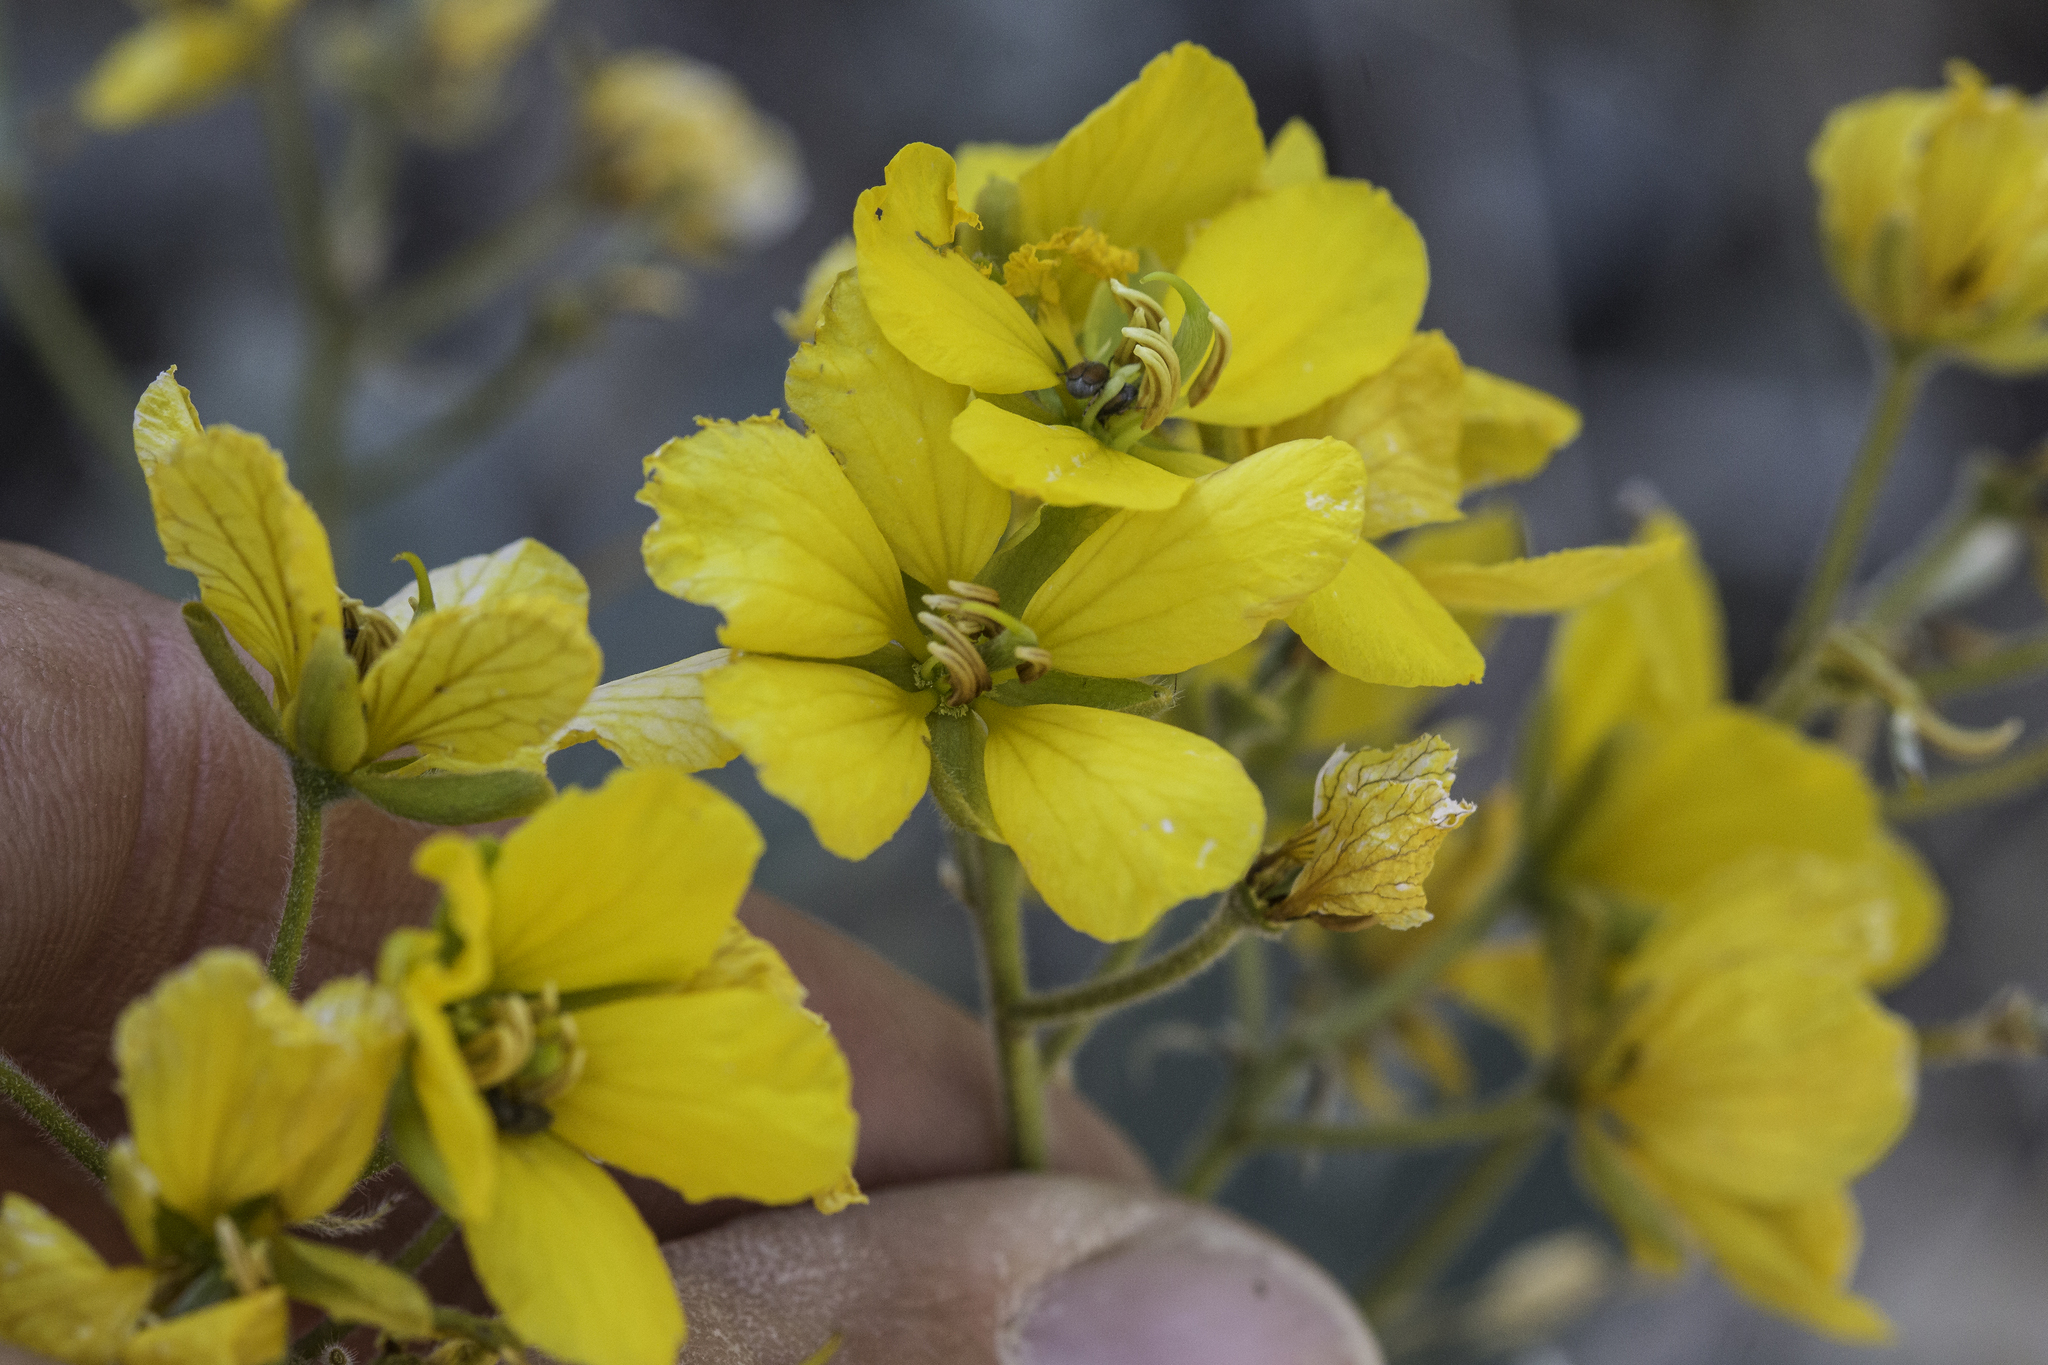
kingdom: Plantae
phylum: Tracheophyta
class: Magnoliopsida
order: Fabales
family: Fabaceae
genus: Senna
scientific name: Senna lindheimeriana
